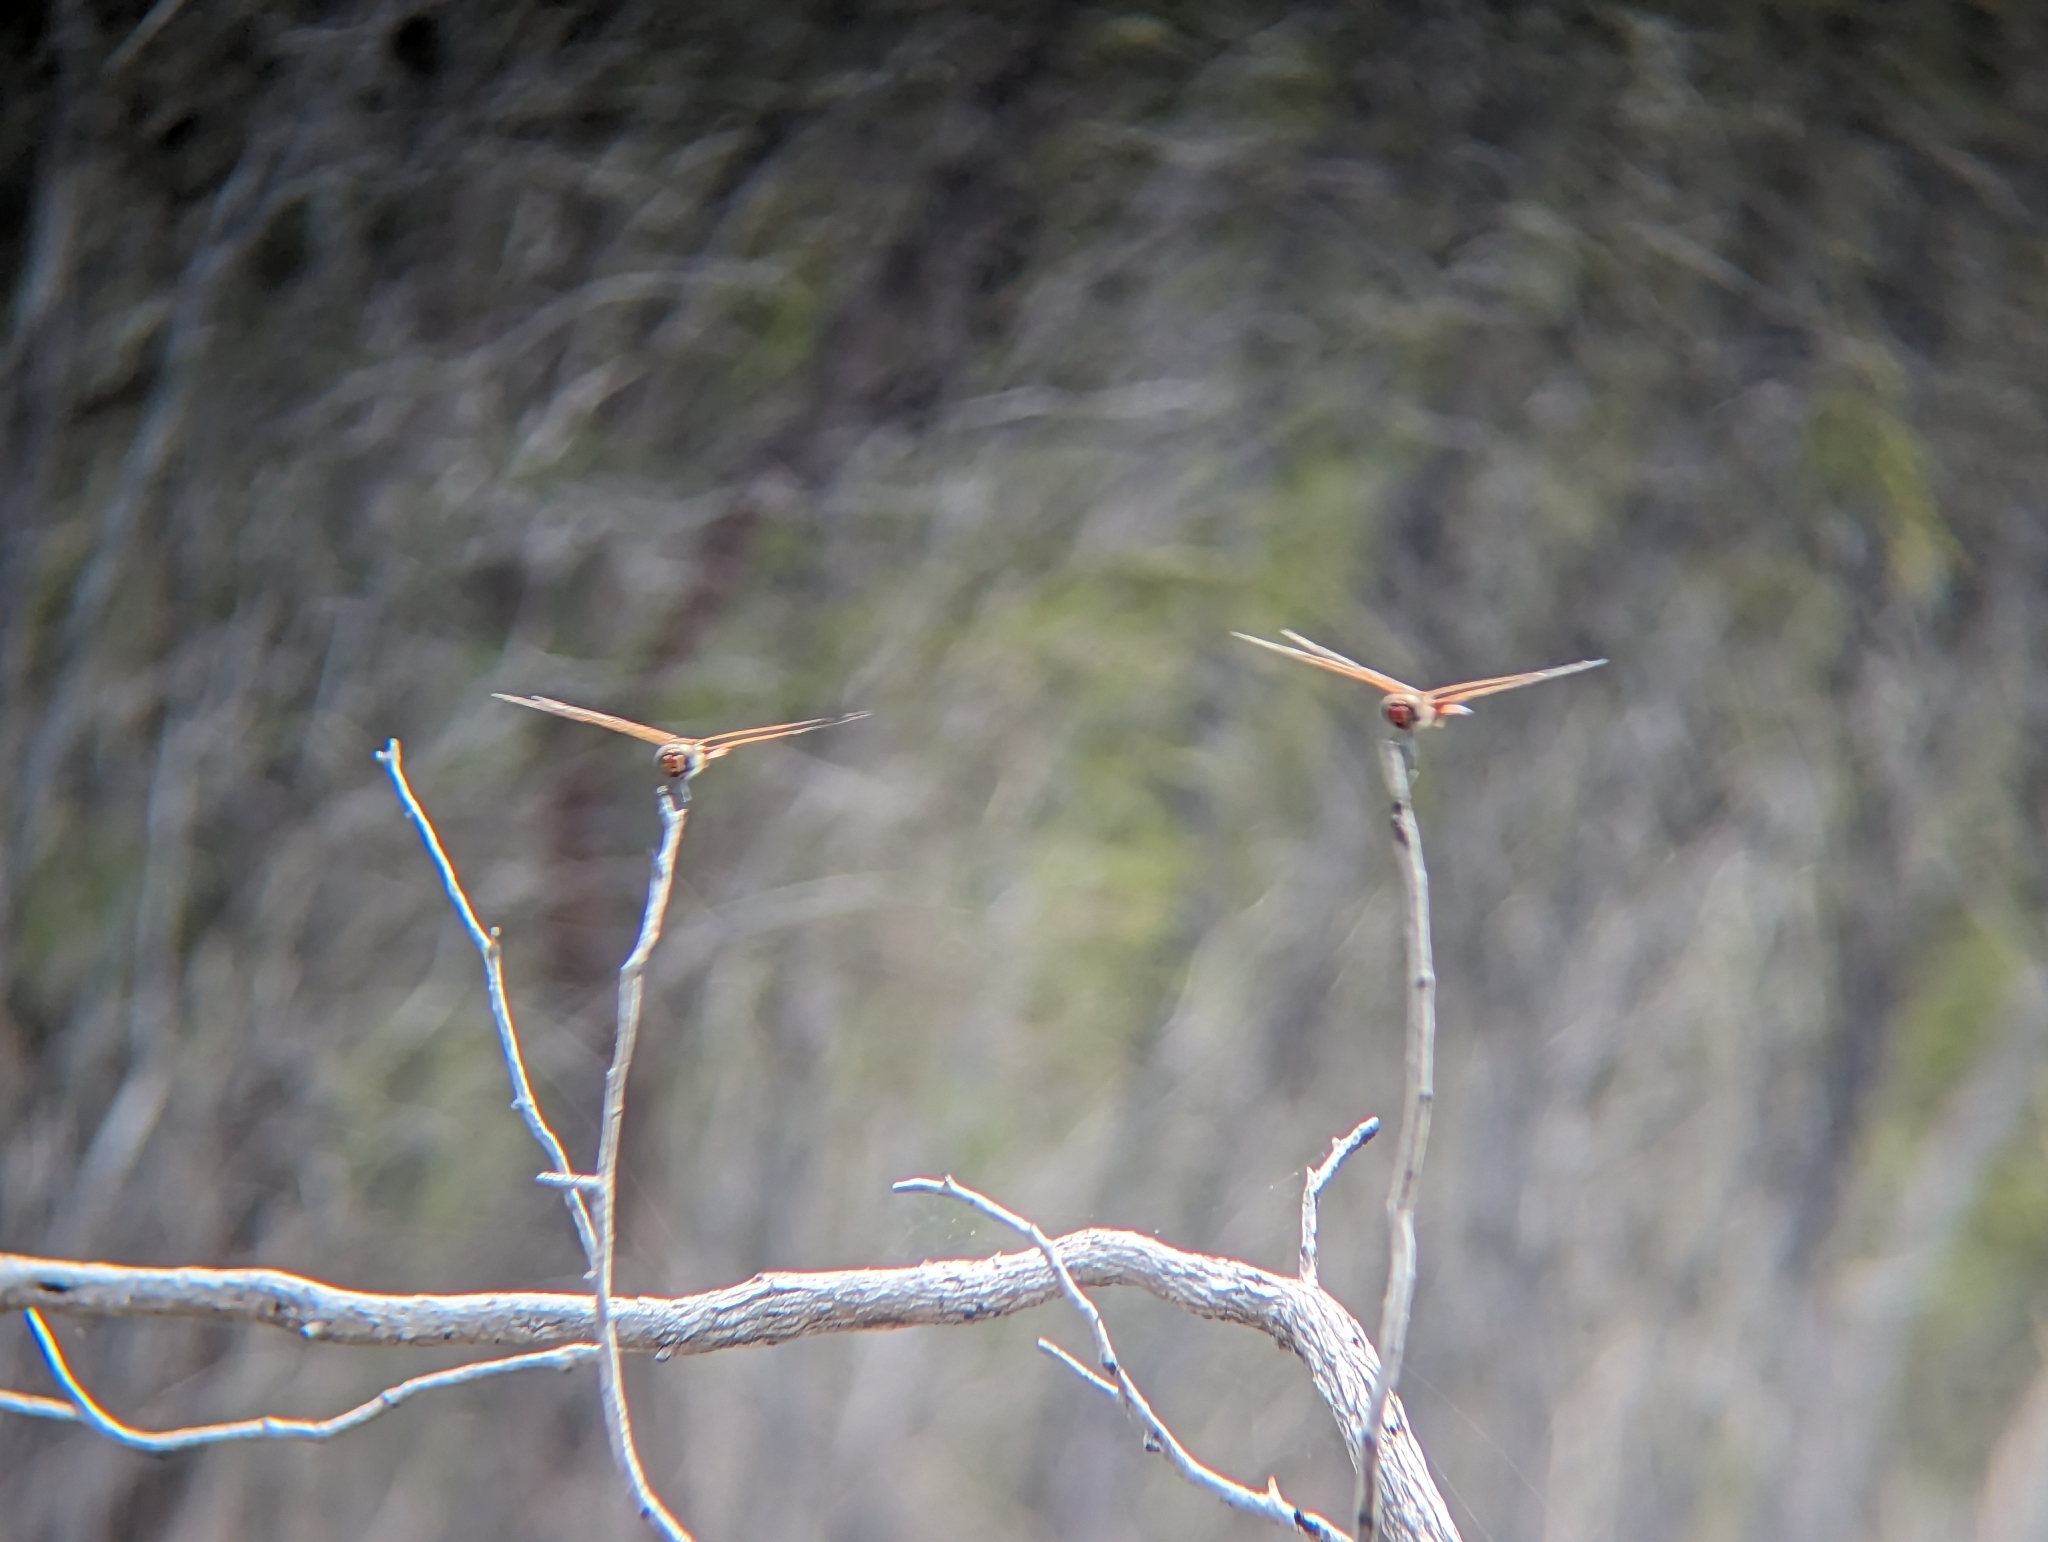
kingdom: Animalia
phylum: Arthropoda
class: Insecta
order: Odonata
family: Libellulidae
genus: Tramea
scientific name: Tramea loewii
